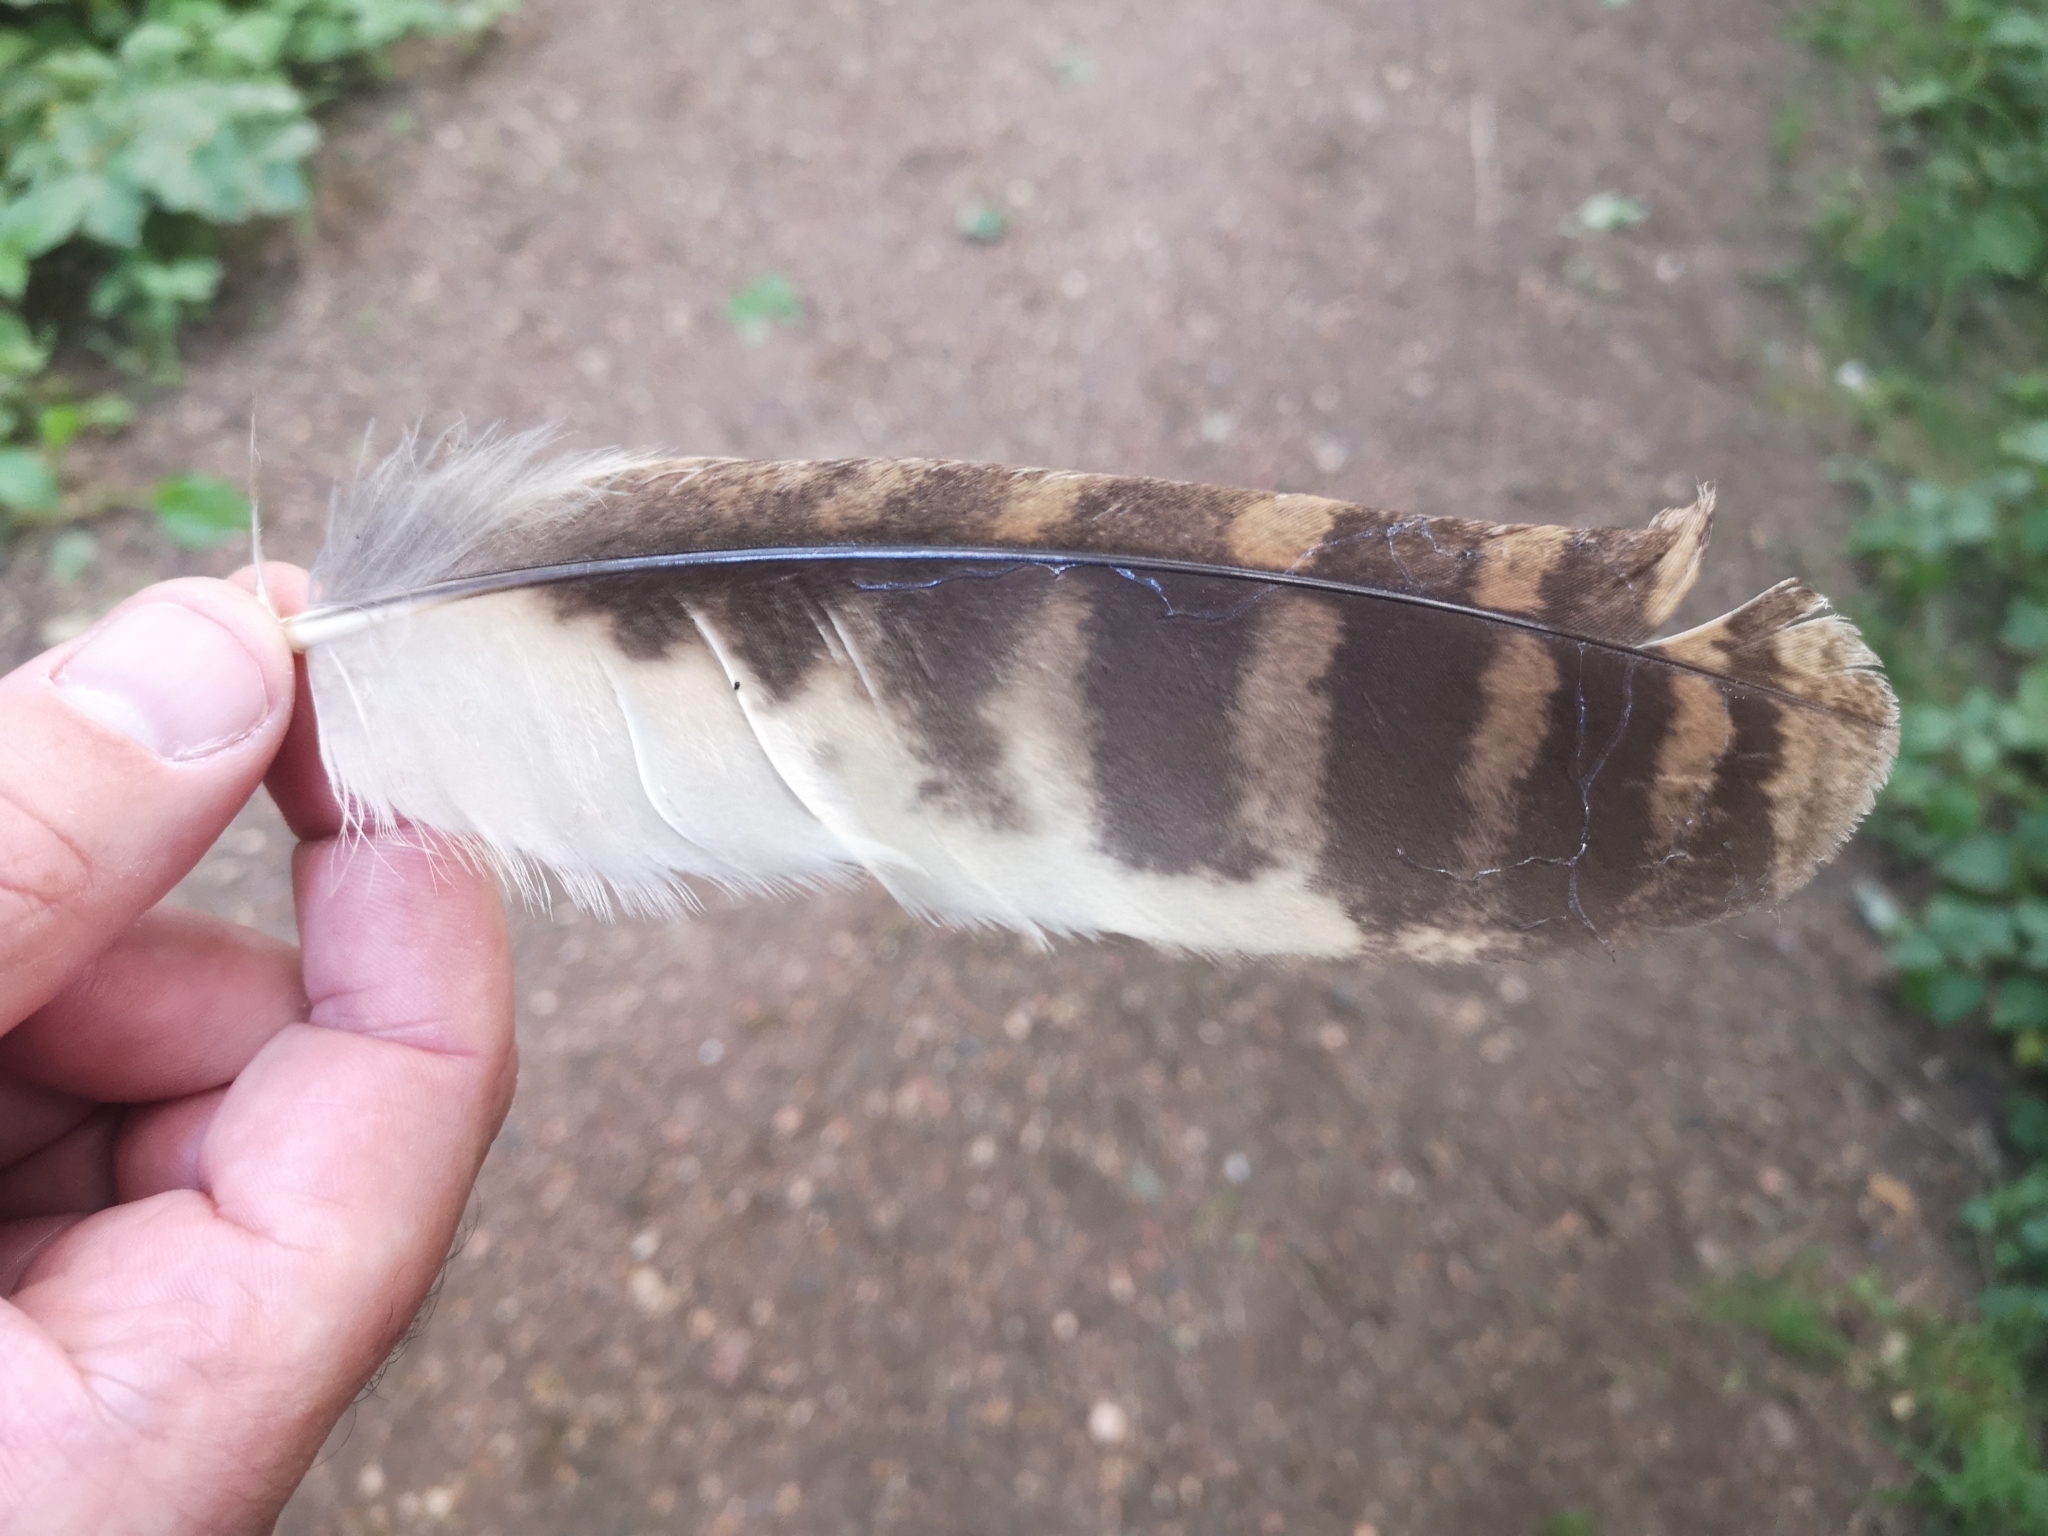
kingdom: Animalia
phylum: Chordata
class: Aves
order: Strigiformes
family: Strigidae
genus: Strix
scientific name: Strix aluco
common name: Tawny owl
